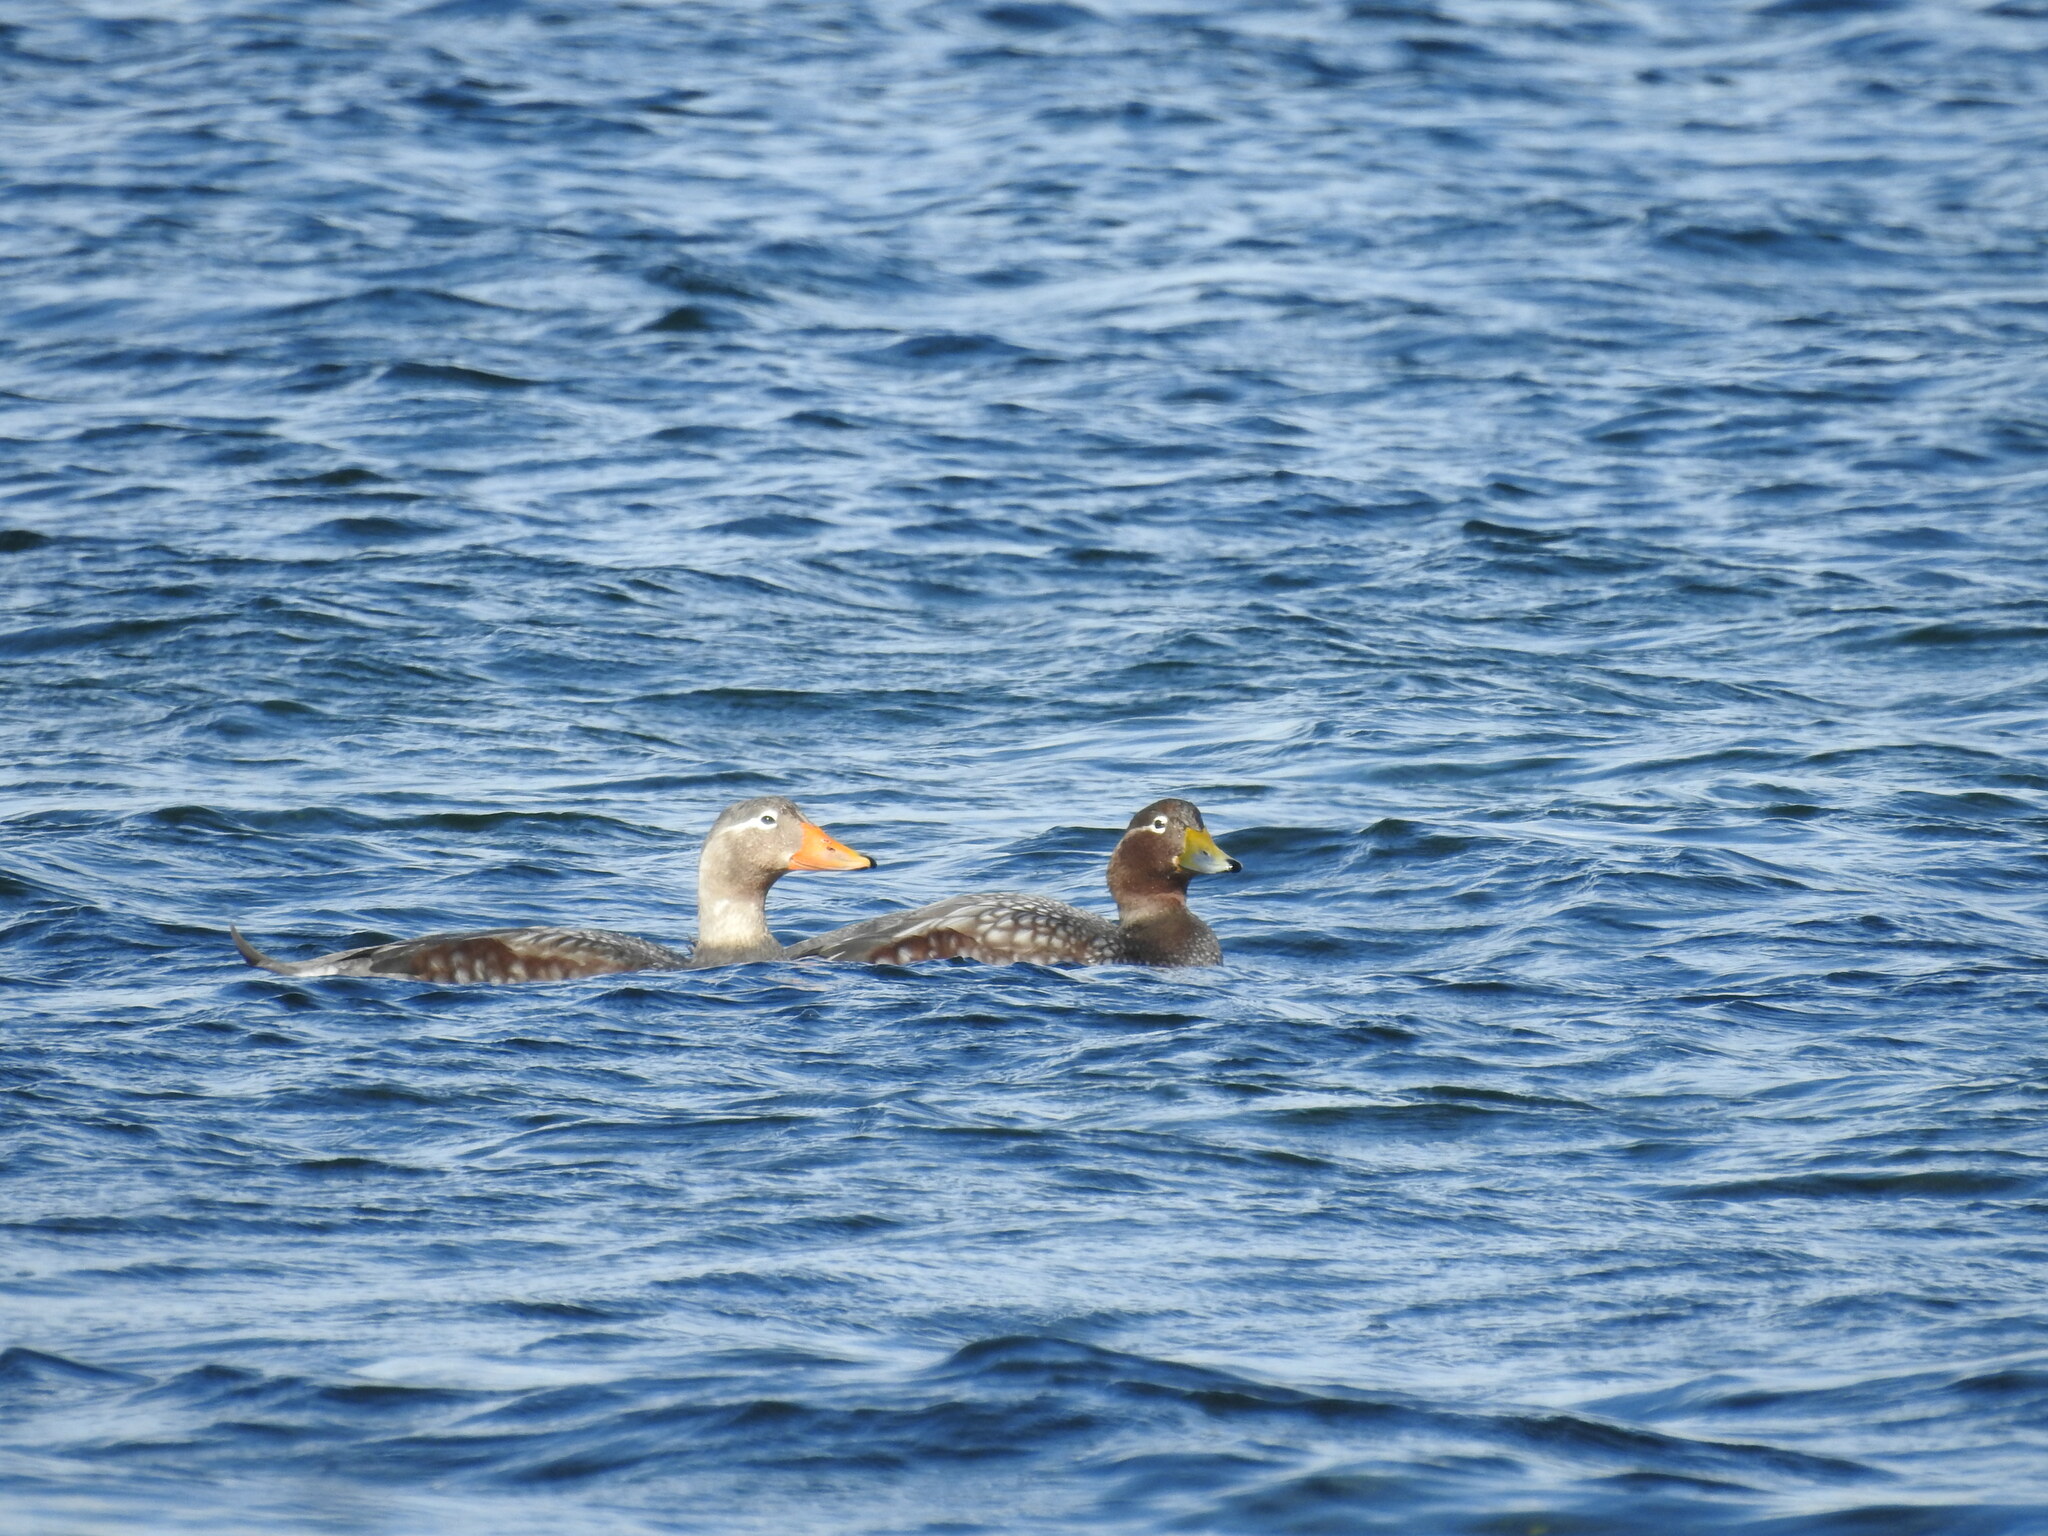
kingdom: Animalia
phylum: Chordata
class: Aves
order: Anseriformes
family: Anatidae
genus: Tachyeres
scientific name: Tachyeres patachonicus
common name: Flying steamer duck
